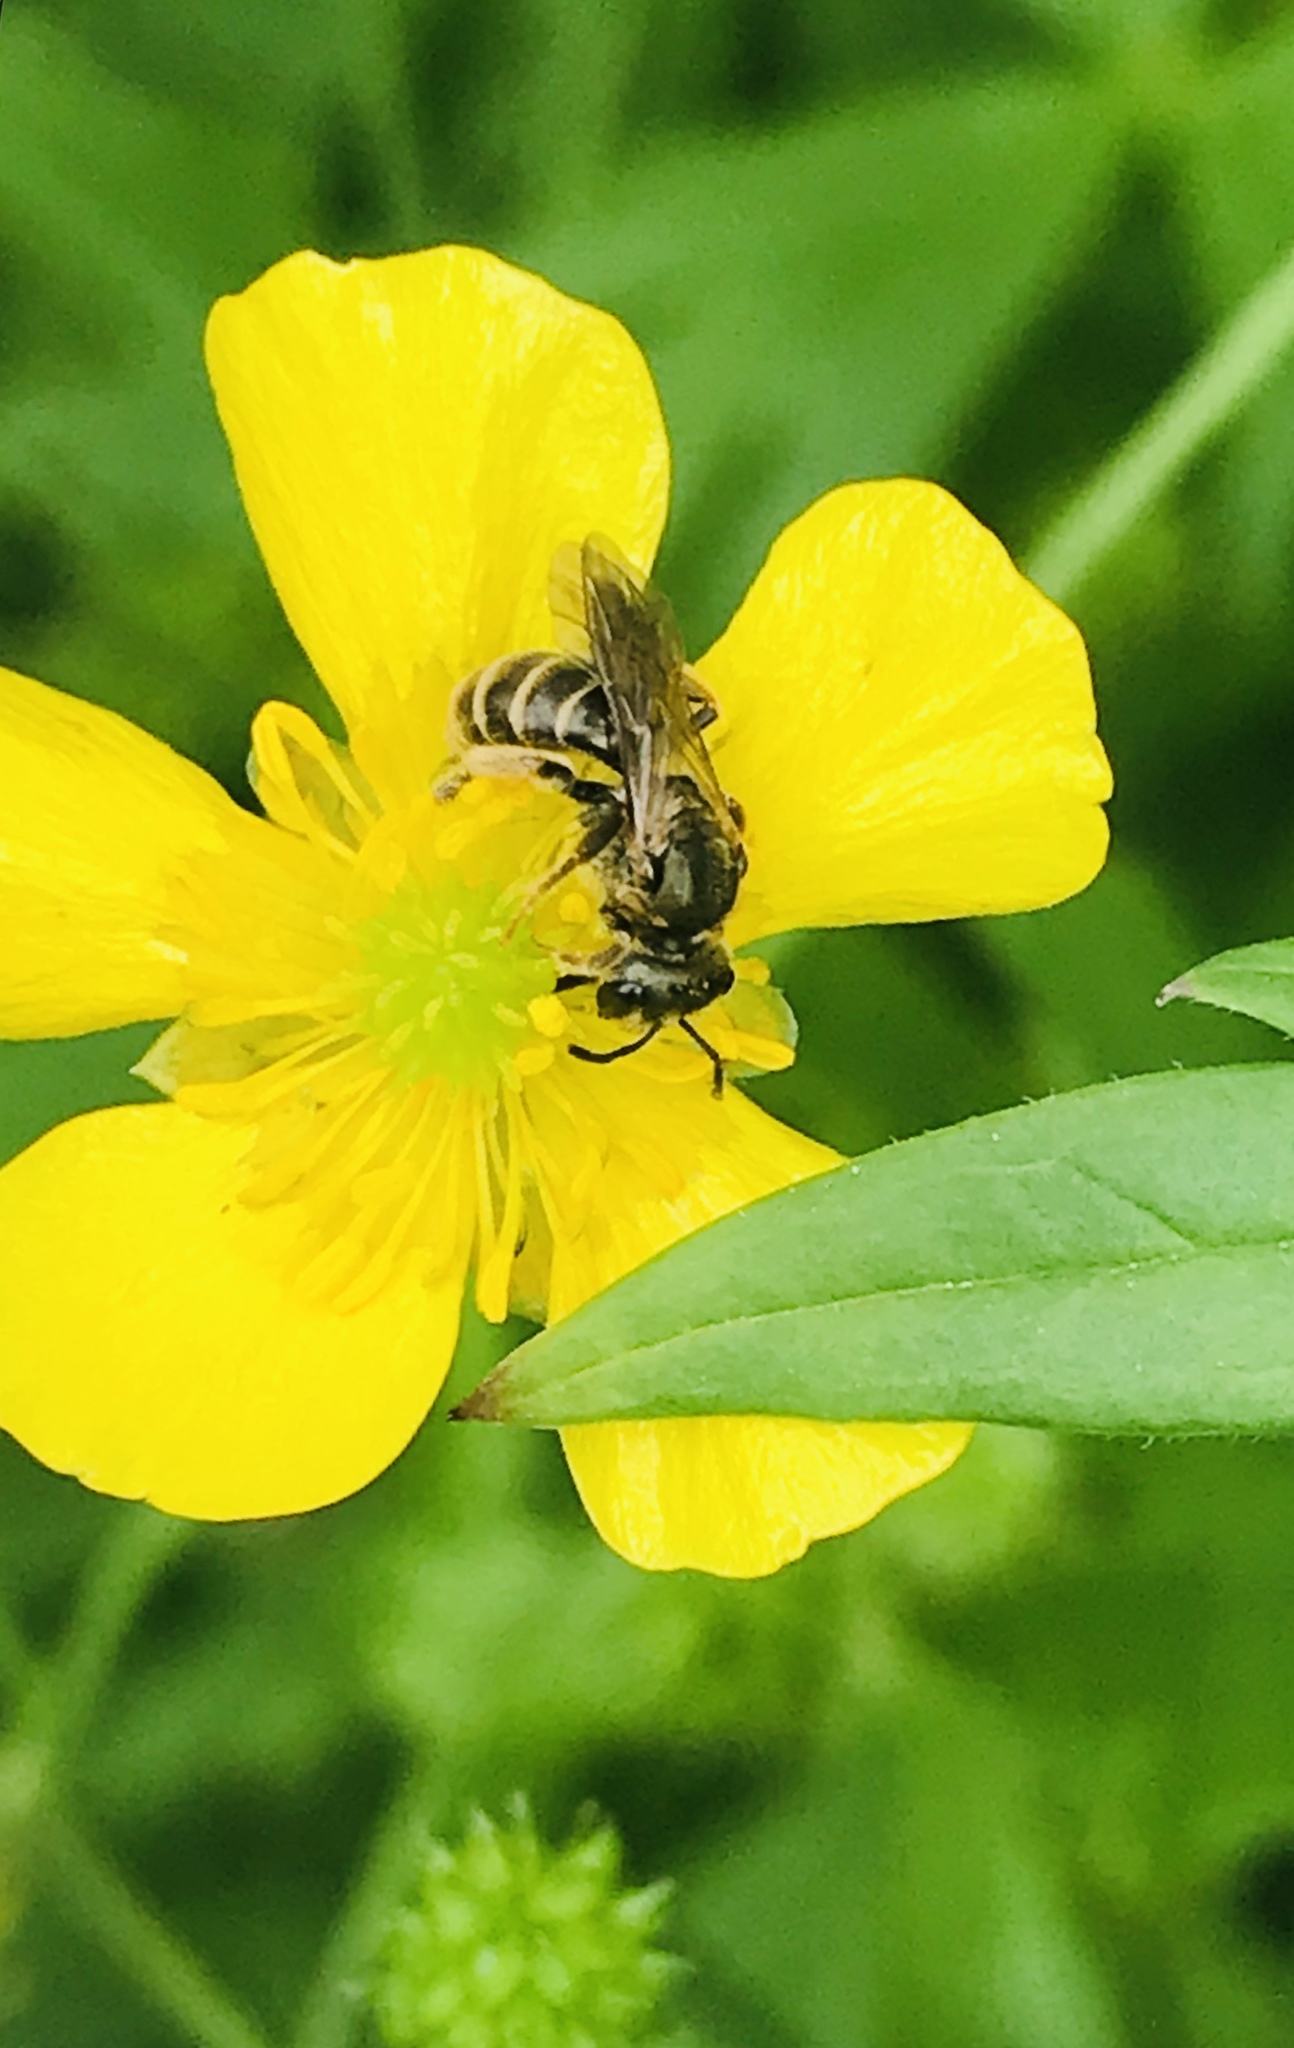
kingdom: Animalia
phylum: Arthropoda
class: Insecta
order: Hymenoptera
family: Halictidae
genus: Halictus
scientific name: Halictus confusus
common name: Southern bronze furrow bee
